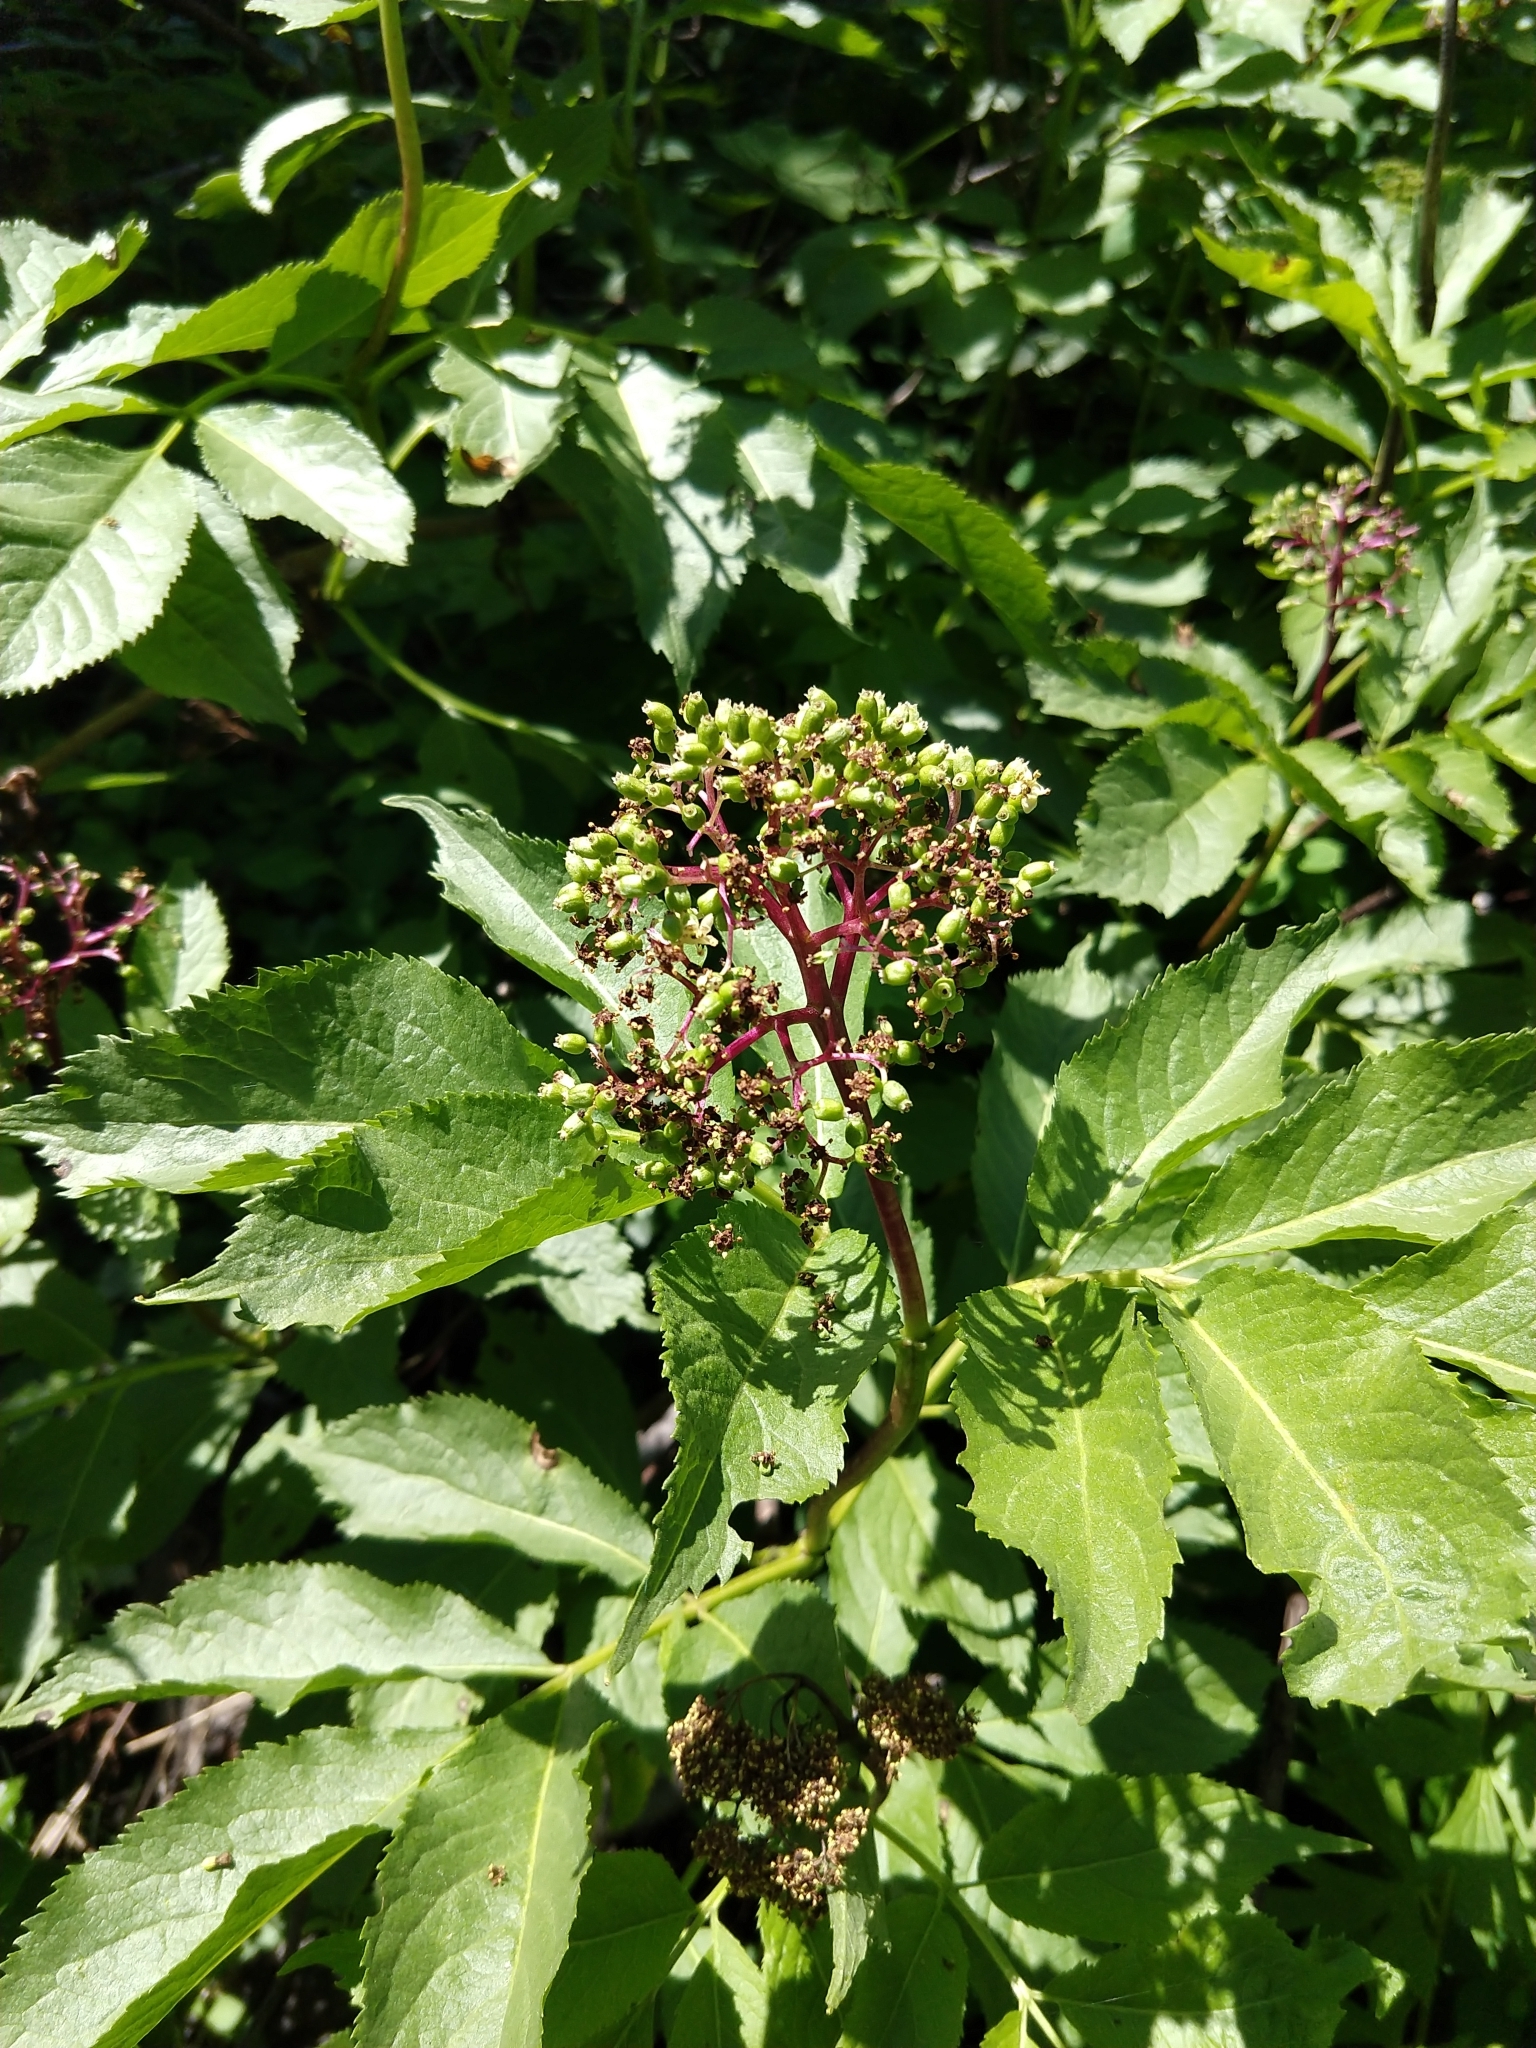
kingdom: Plantae
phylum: Tracheophyta
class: Magnoliopsida
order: Dipsacales
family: Viburnaceae
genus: Sambucus
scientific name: Sambucus racemosa
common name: Red-berried elder
